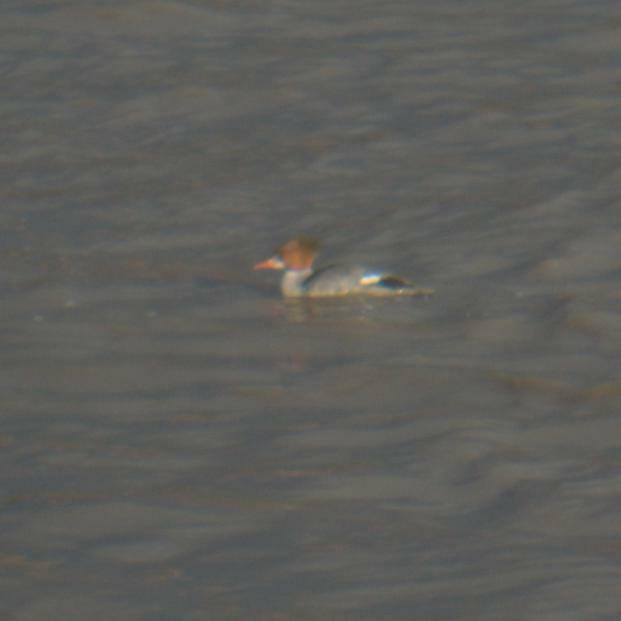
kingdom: Animalia
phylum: Chordata
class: Aves
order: Anseriformes
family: Anatidae
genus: Mergus
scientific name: Mergus merganser
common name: Common merganser
